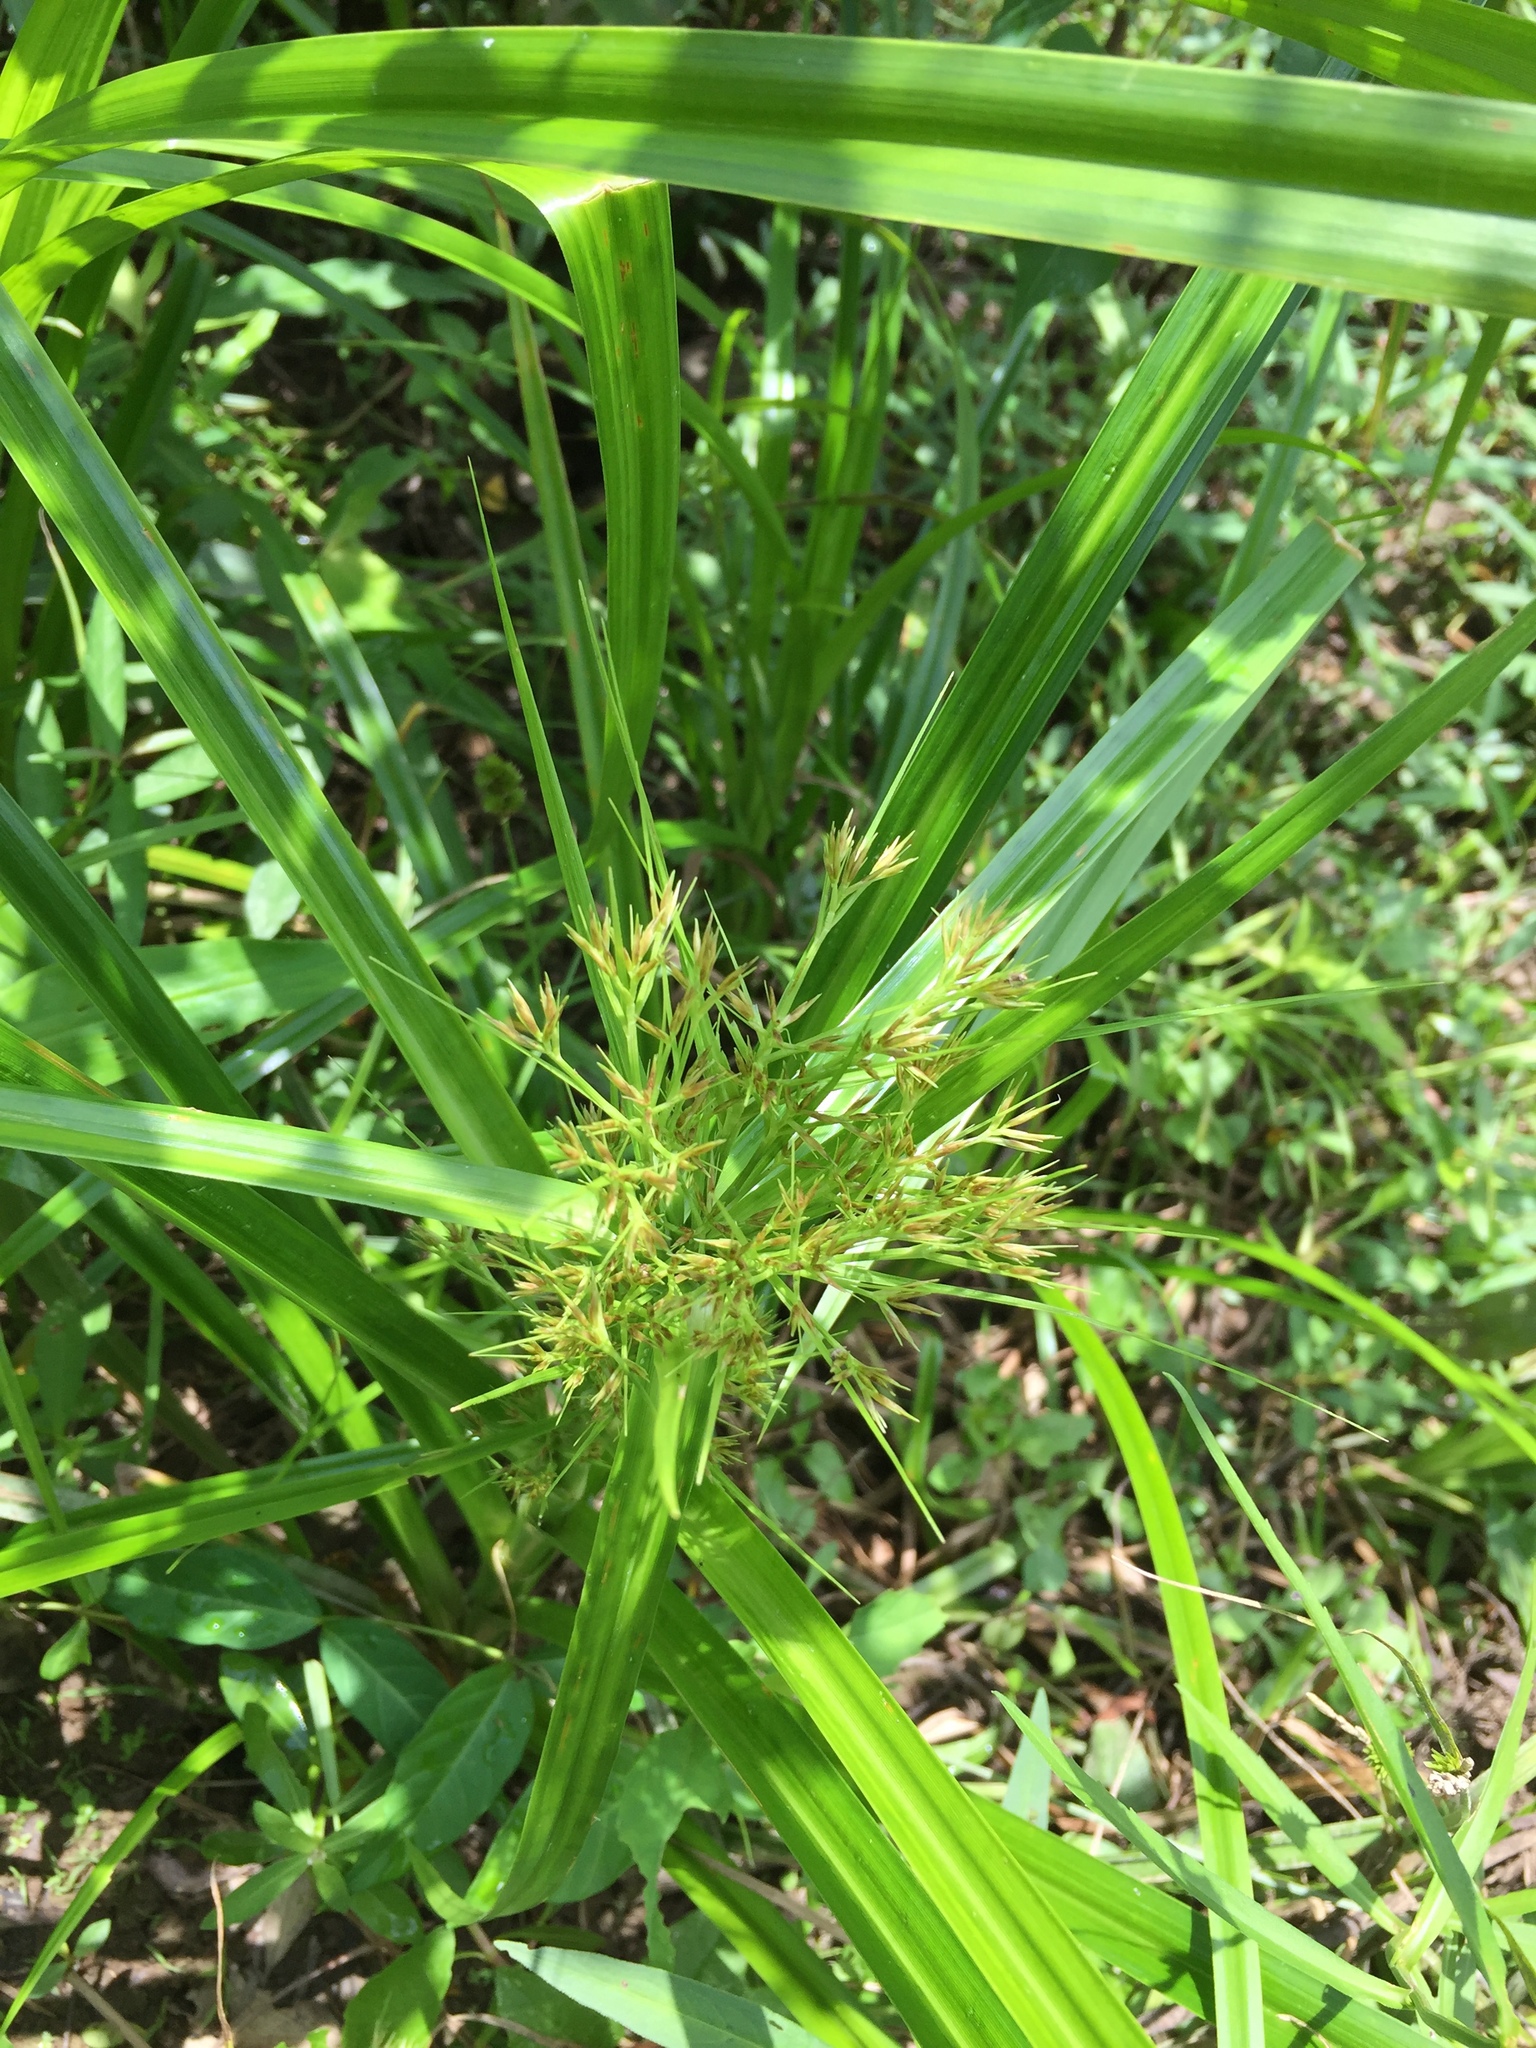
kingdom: Plantae
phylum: Tracheophyta
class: Liliopsida
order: Poales
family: Cyperaceae
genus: Rhynchospora
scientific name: Rhynchospora corniculata
